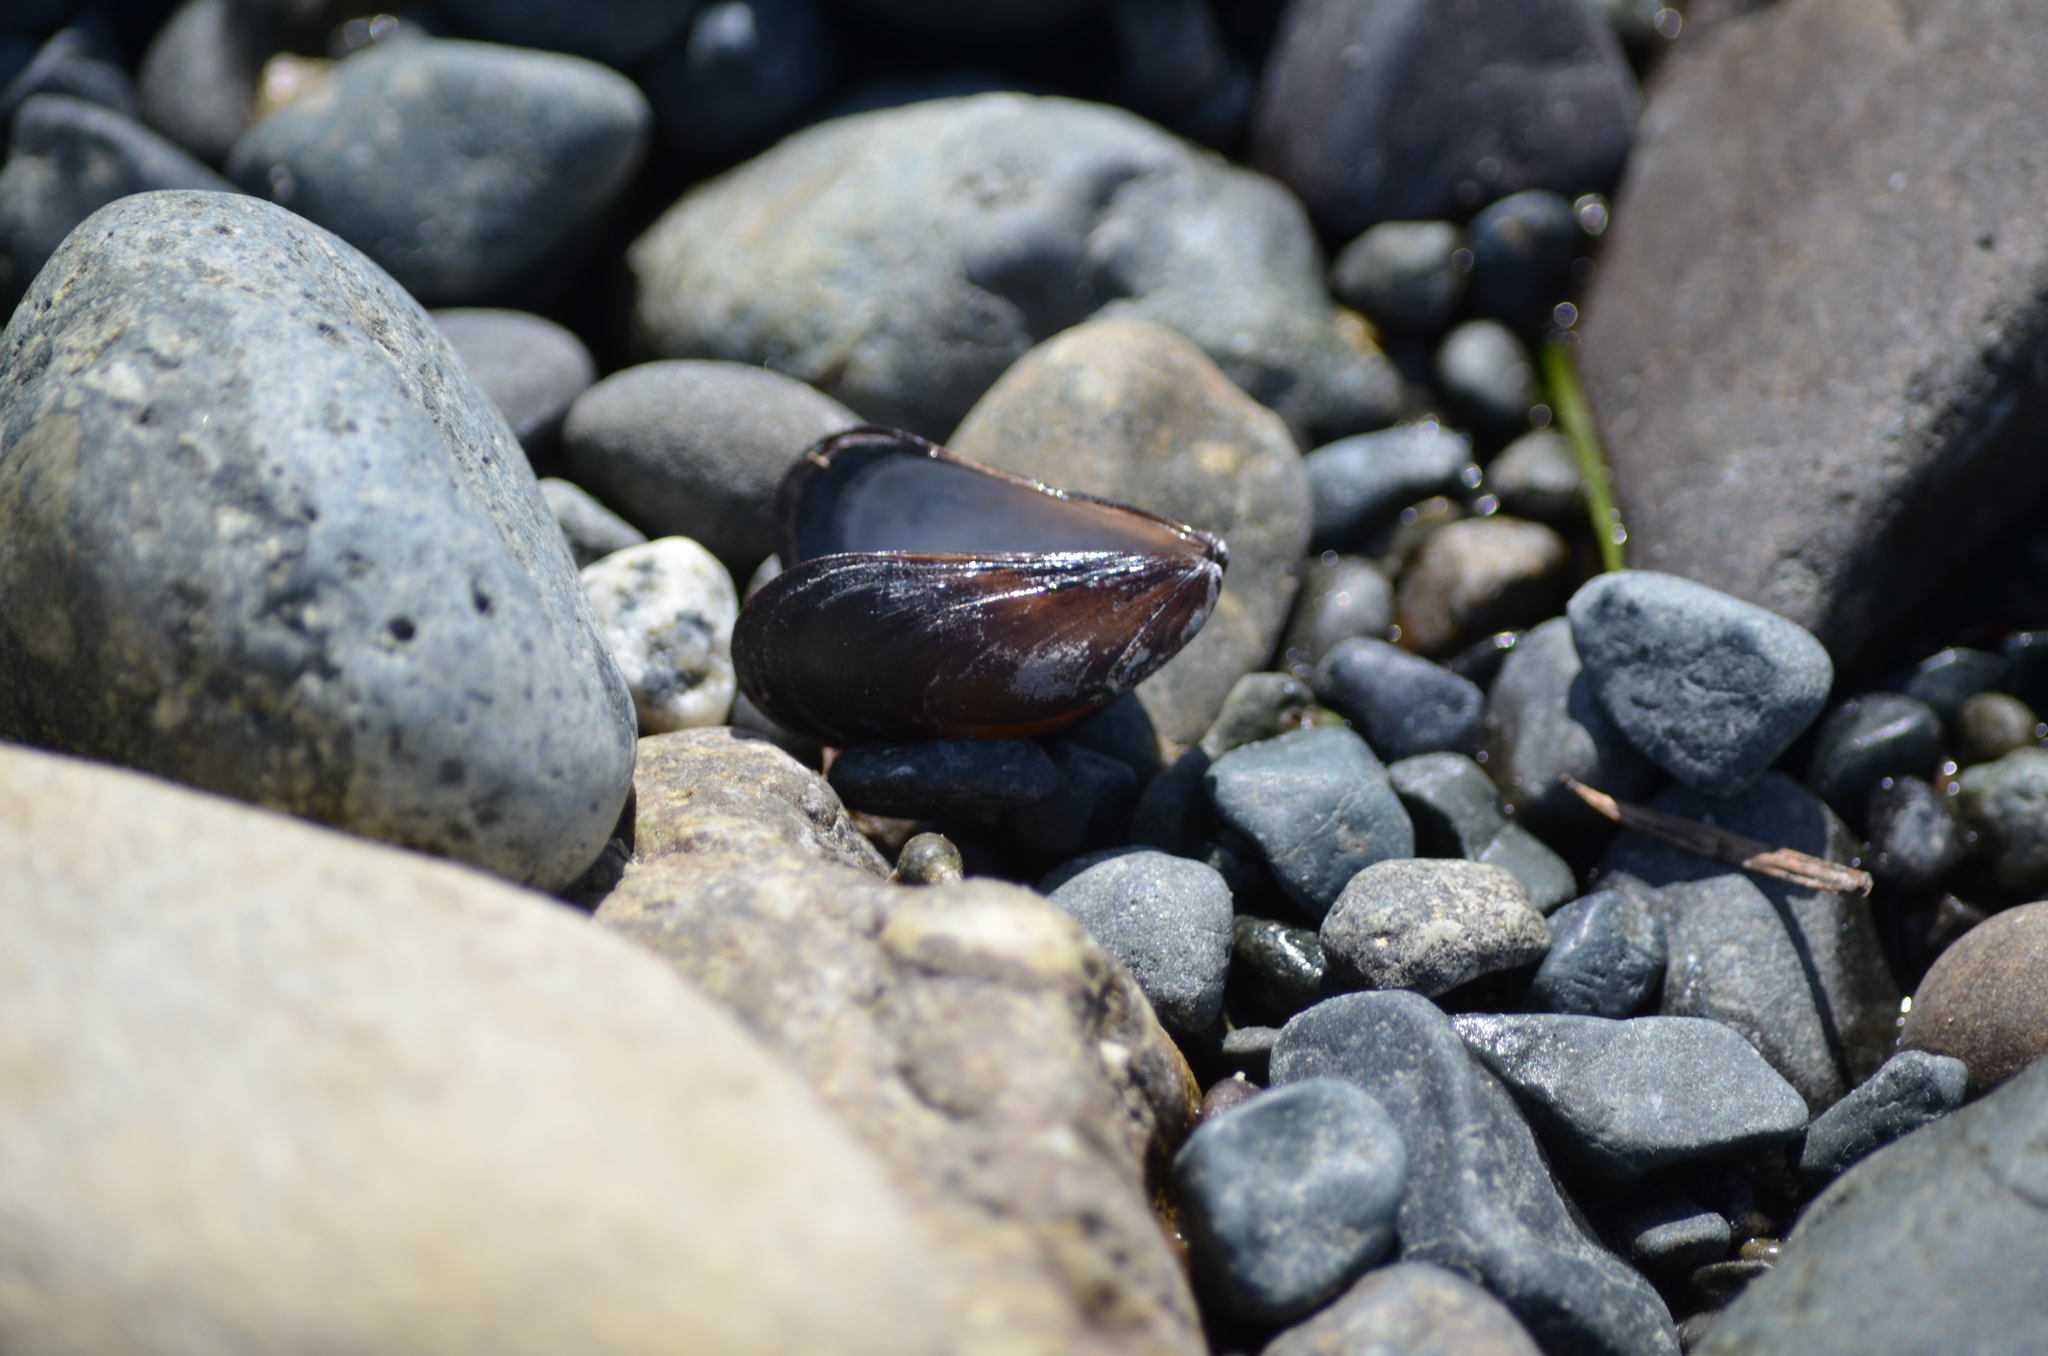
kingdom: Animalia
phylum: Mollusca
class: Bivalvia
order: Mytilida
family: Mytilidae
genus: Mytilus
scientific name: Mytilus
